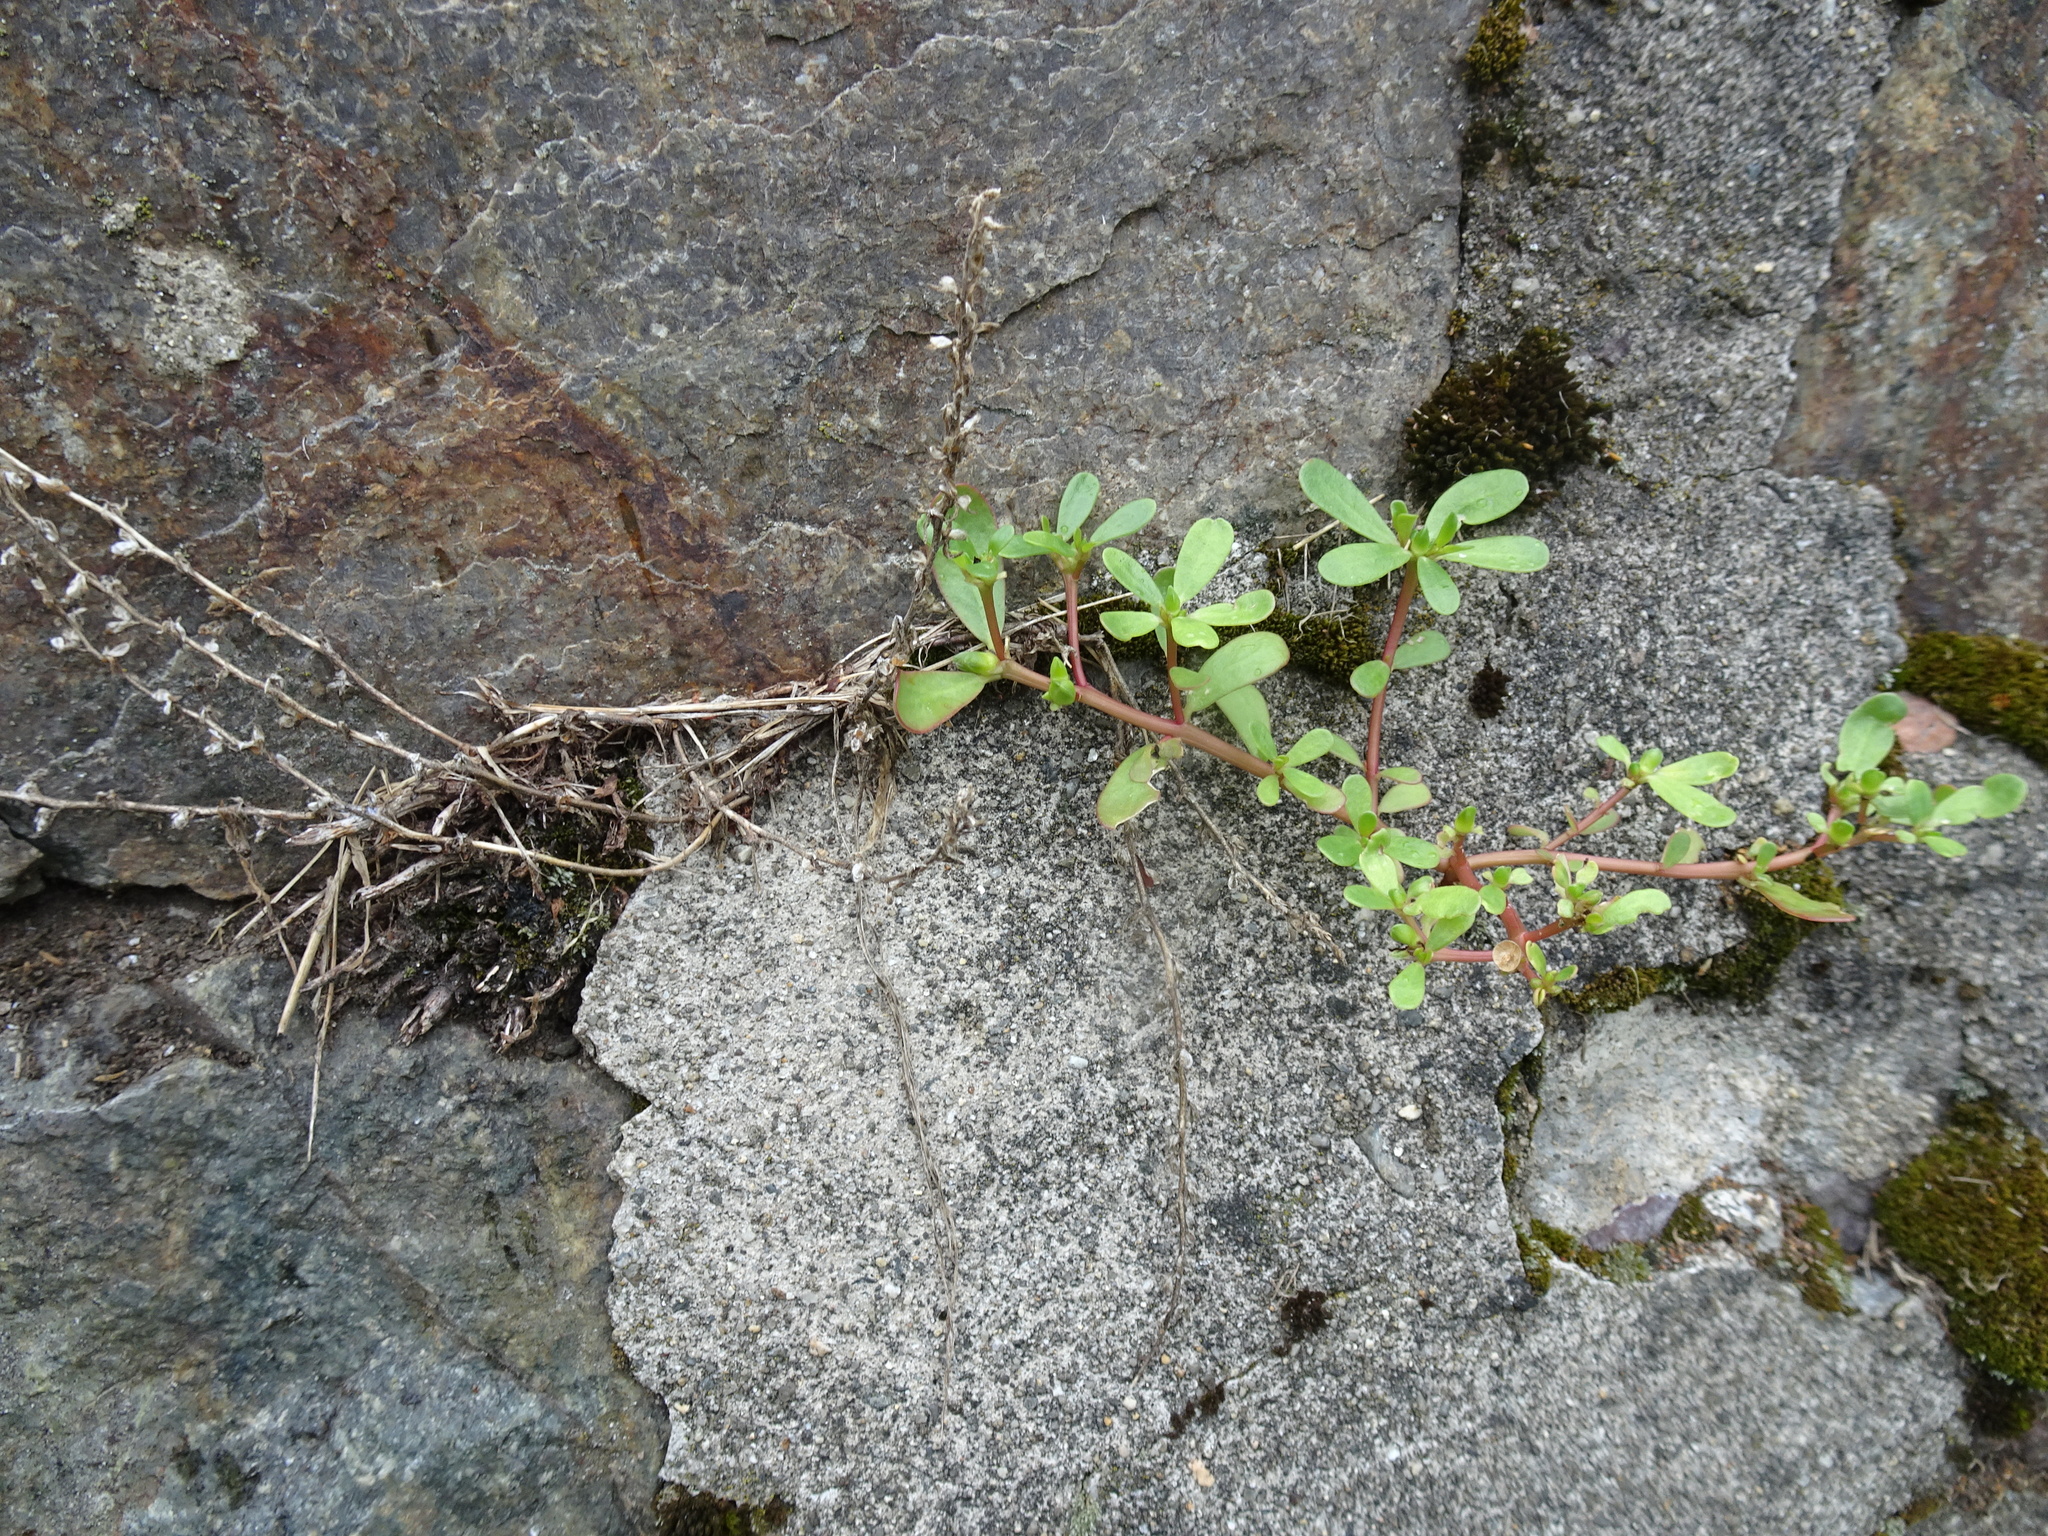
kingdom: Plantae
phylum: Tracheophyta
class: Magnoliopsida
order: Caryophyllales
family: Portulacaceae
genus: Portulaca
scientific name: Portulaca oleracea
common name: Common purslane
